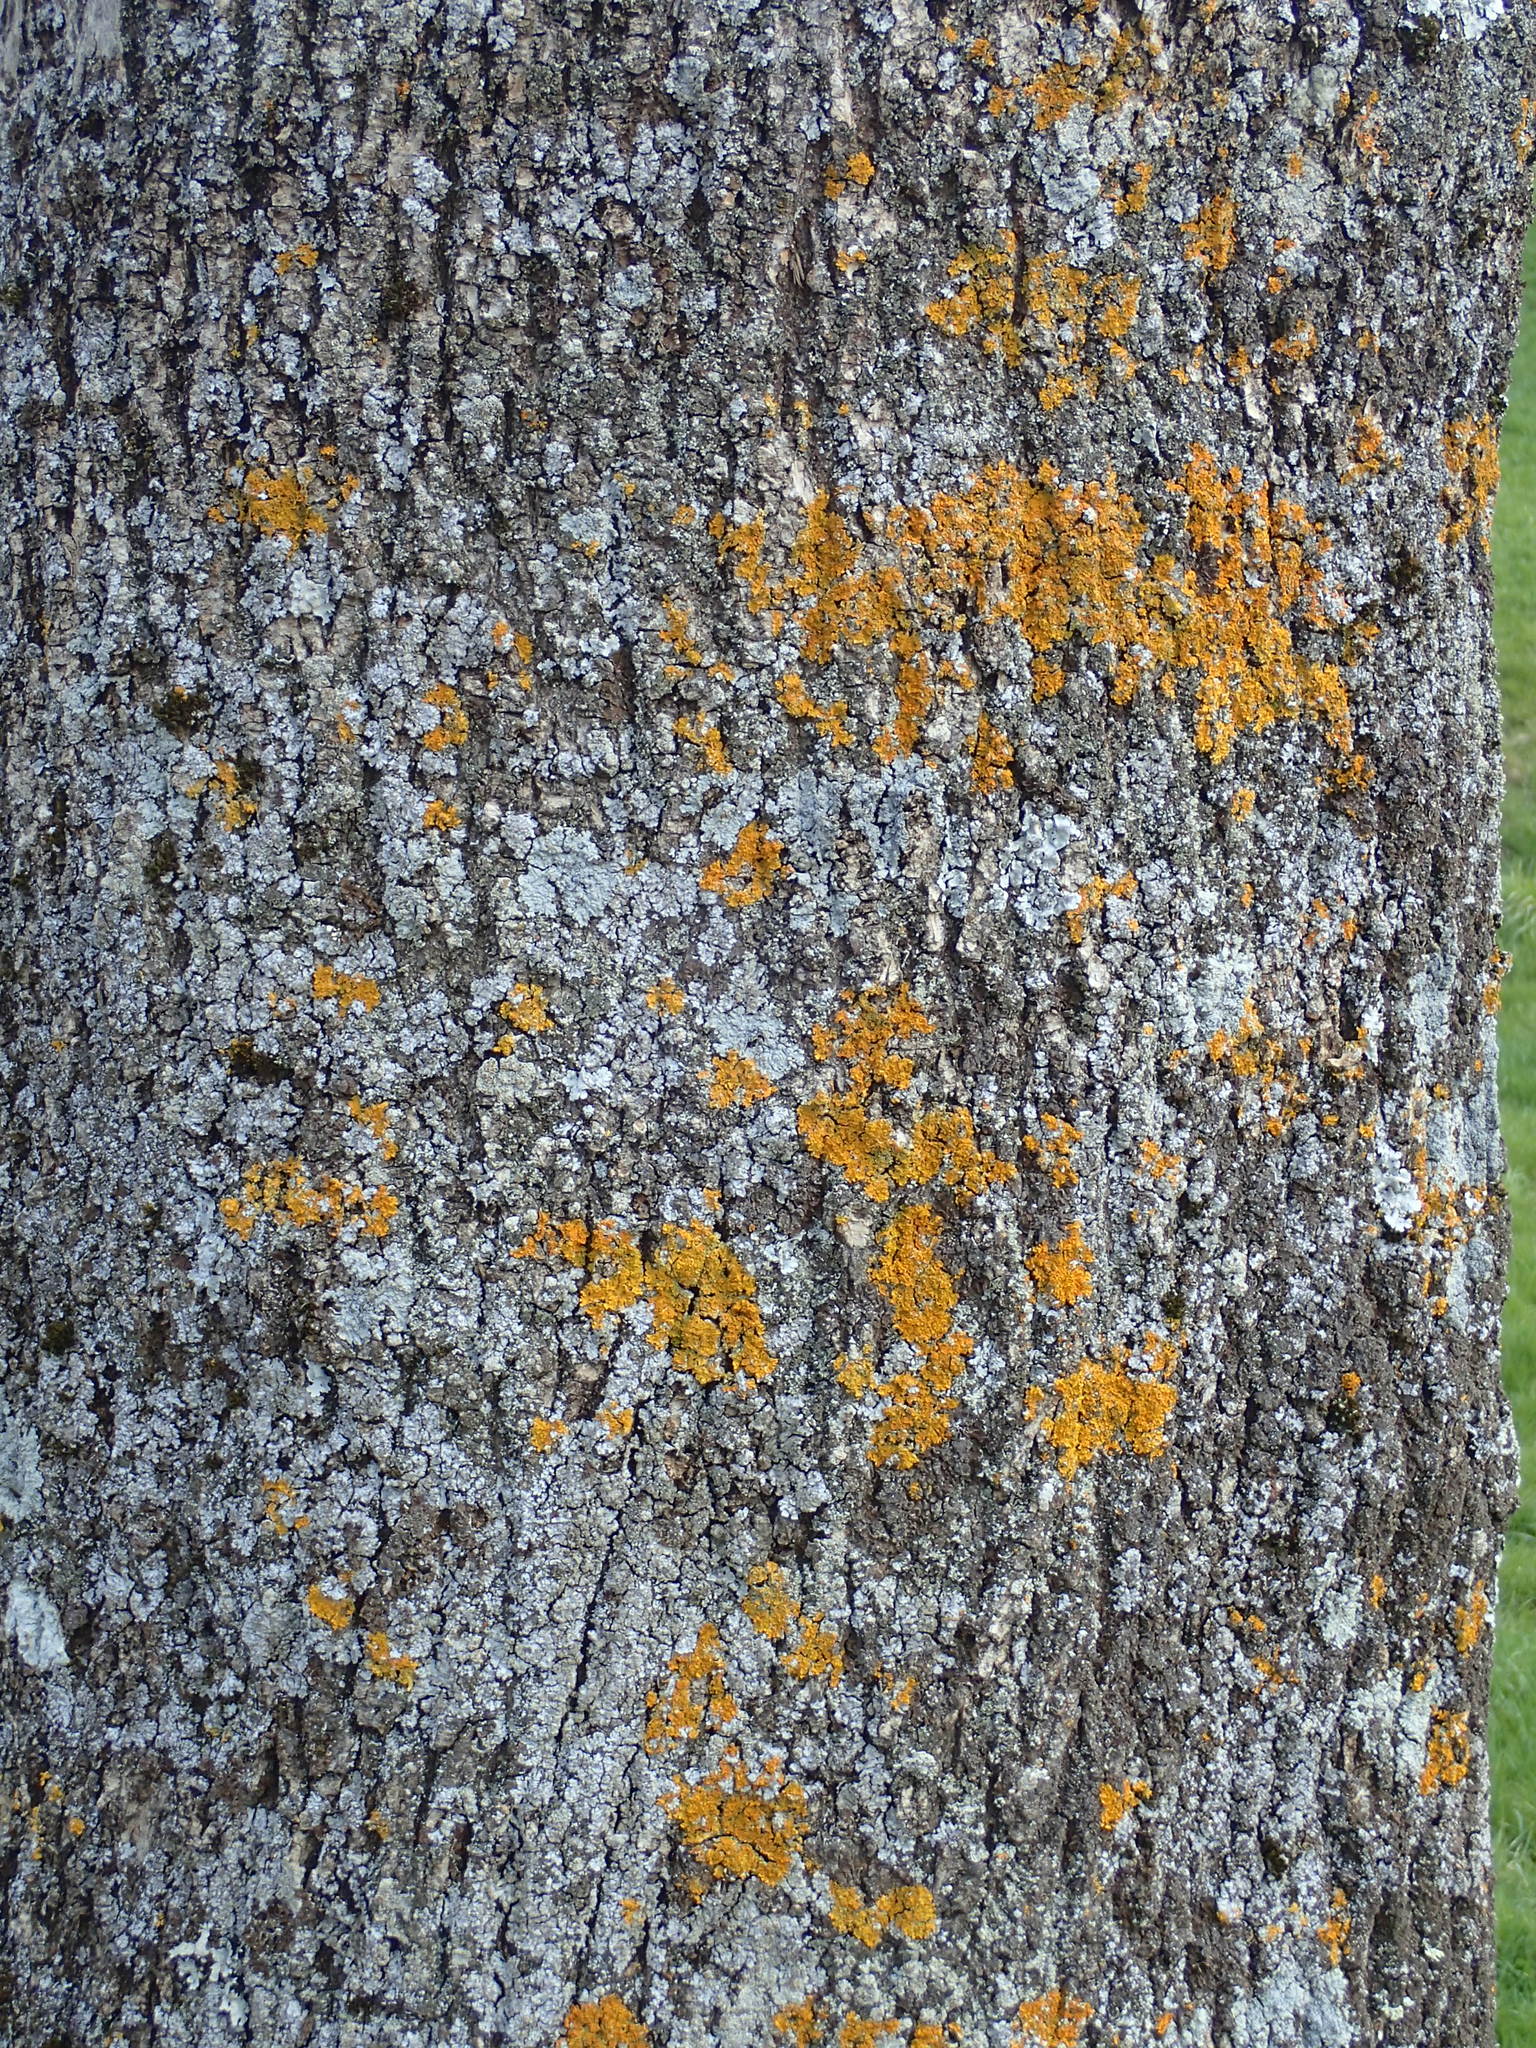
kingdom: Fungi
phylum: Ascomycota
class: Lecanoromycetes
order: Teloschistales
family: Teloschistaceae
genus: Xanthoria
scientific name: Xanthoria parietina
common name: Common orange lichen
